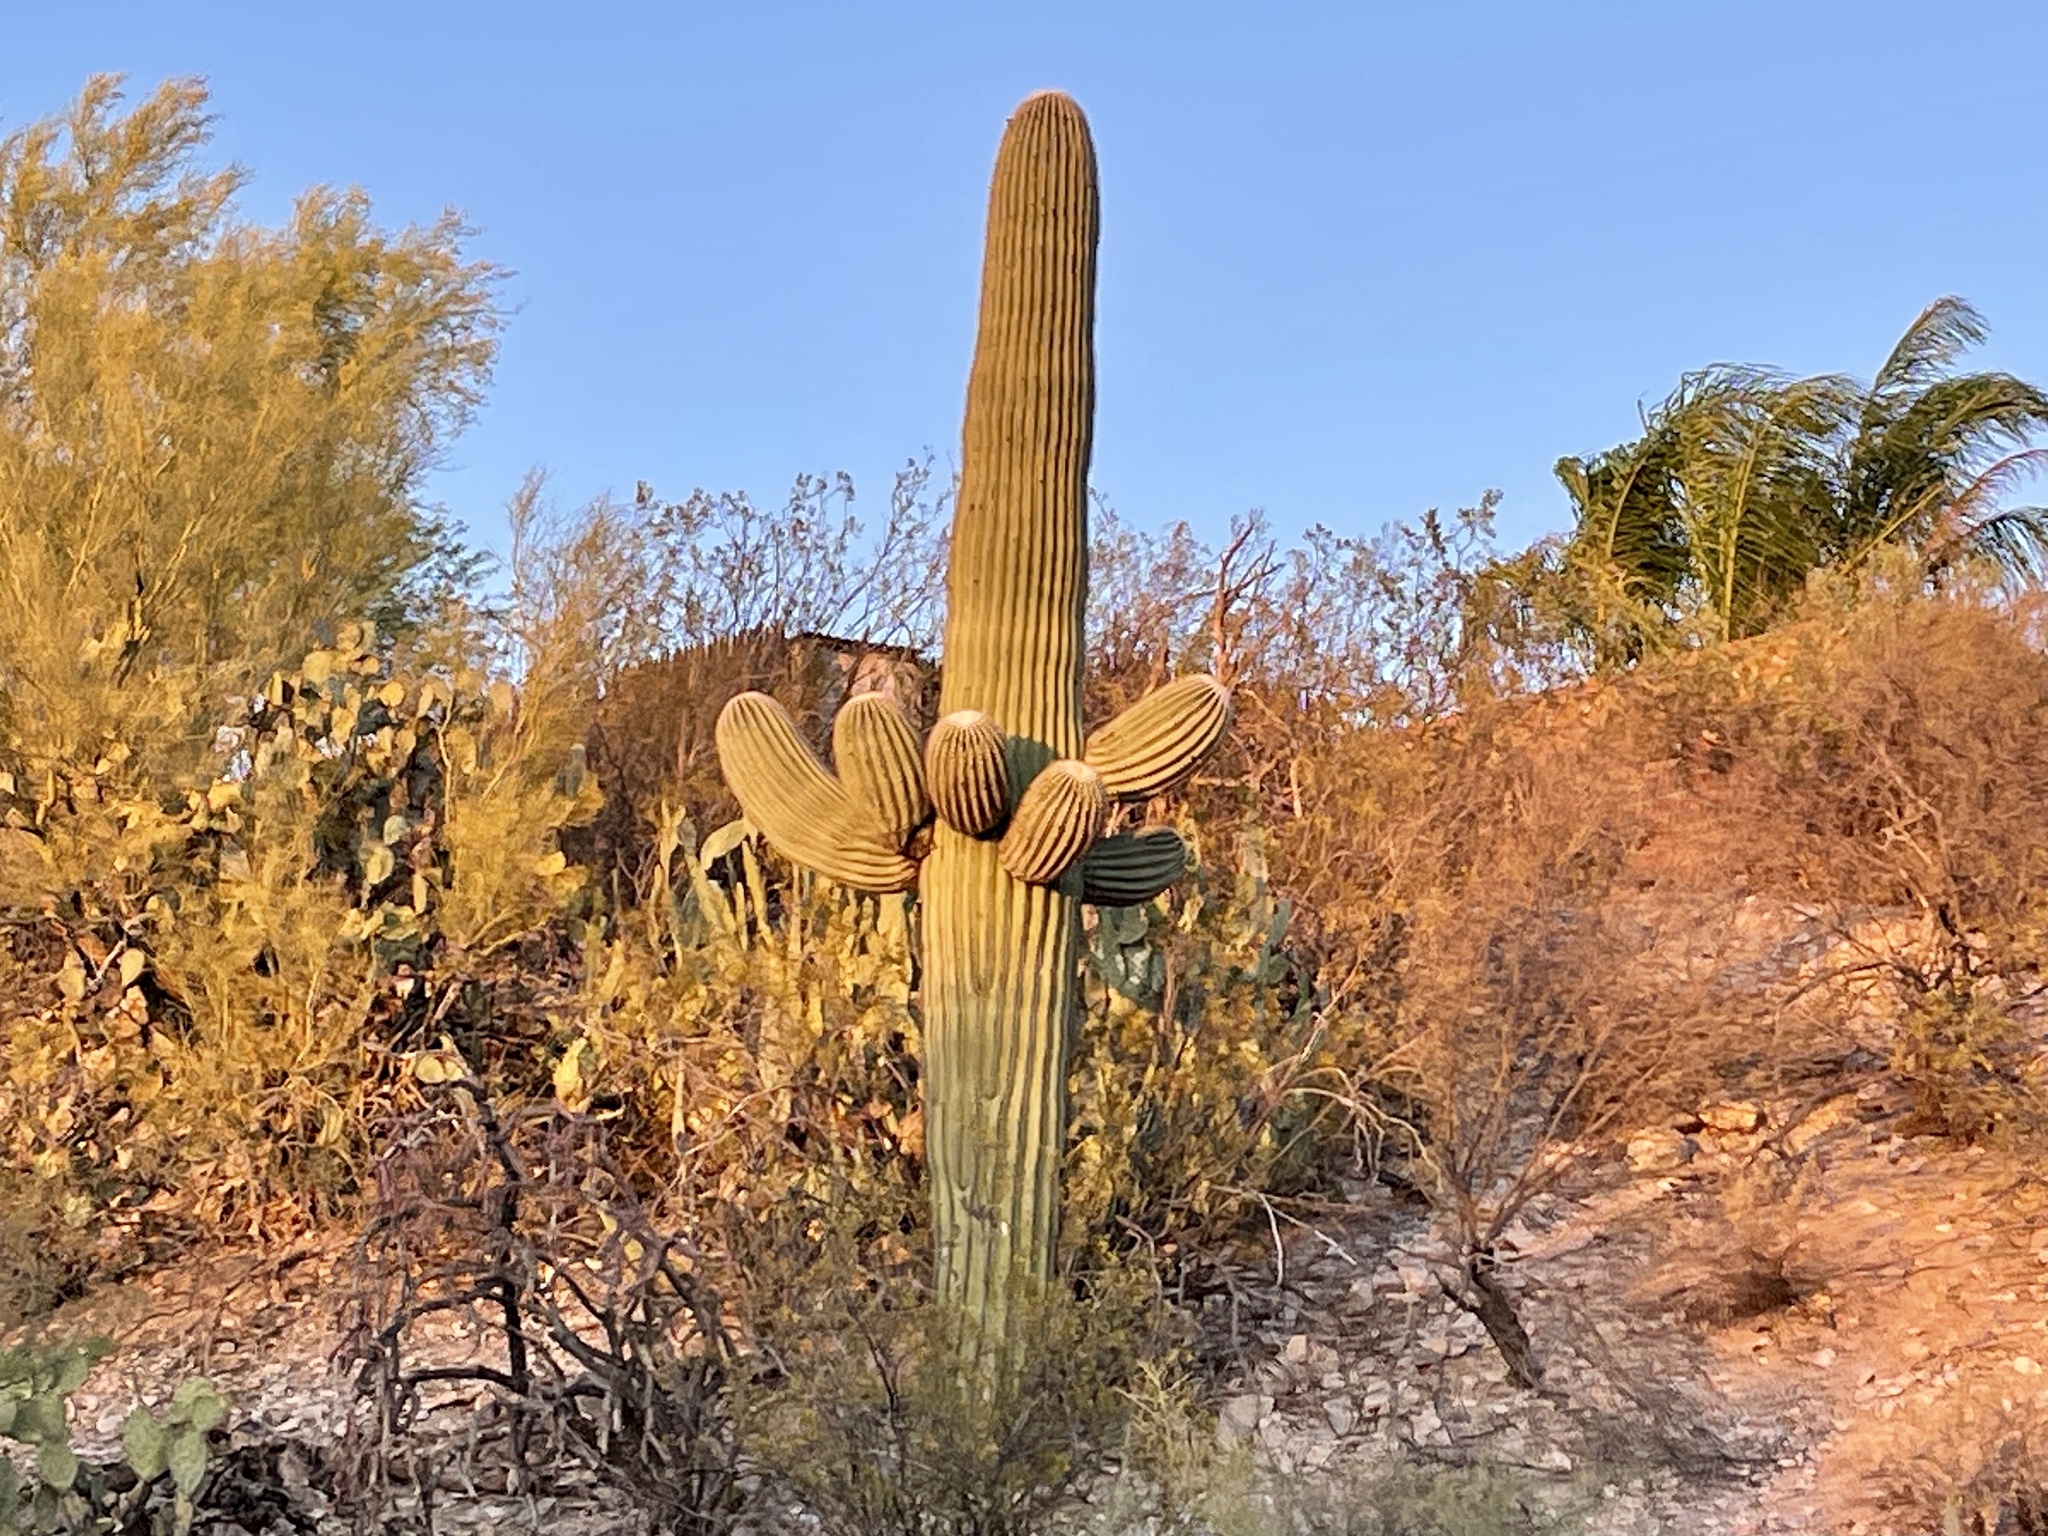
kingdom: Plantae
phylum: Tracheophyta
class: Magnoliopsida
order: Caryophyllales
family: Cactaceae
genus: Carnegiea
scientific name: Carnegiea gigantea
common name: Saguaro
